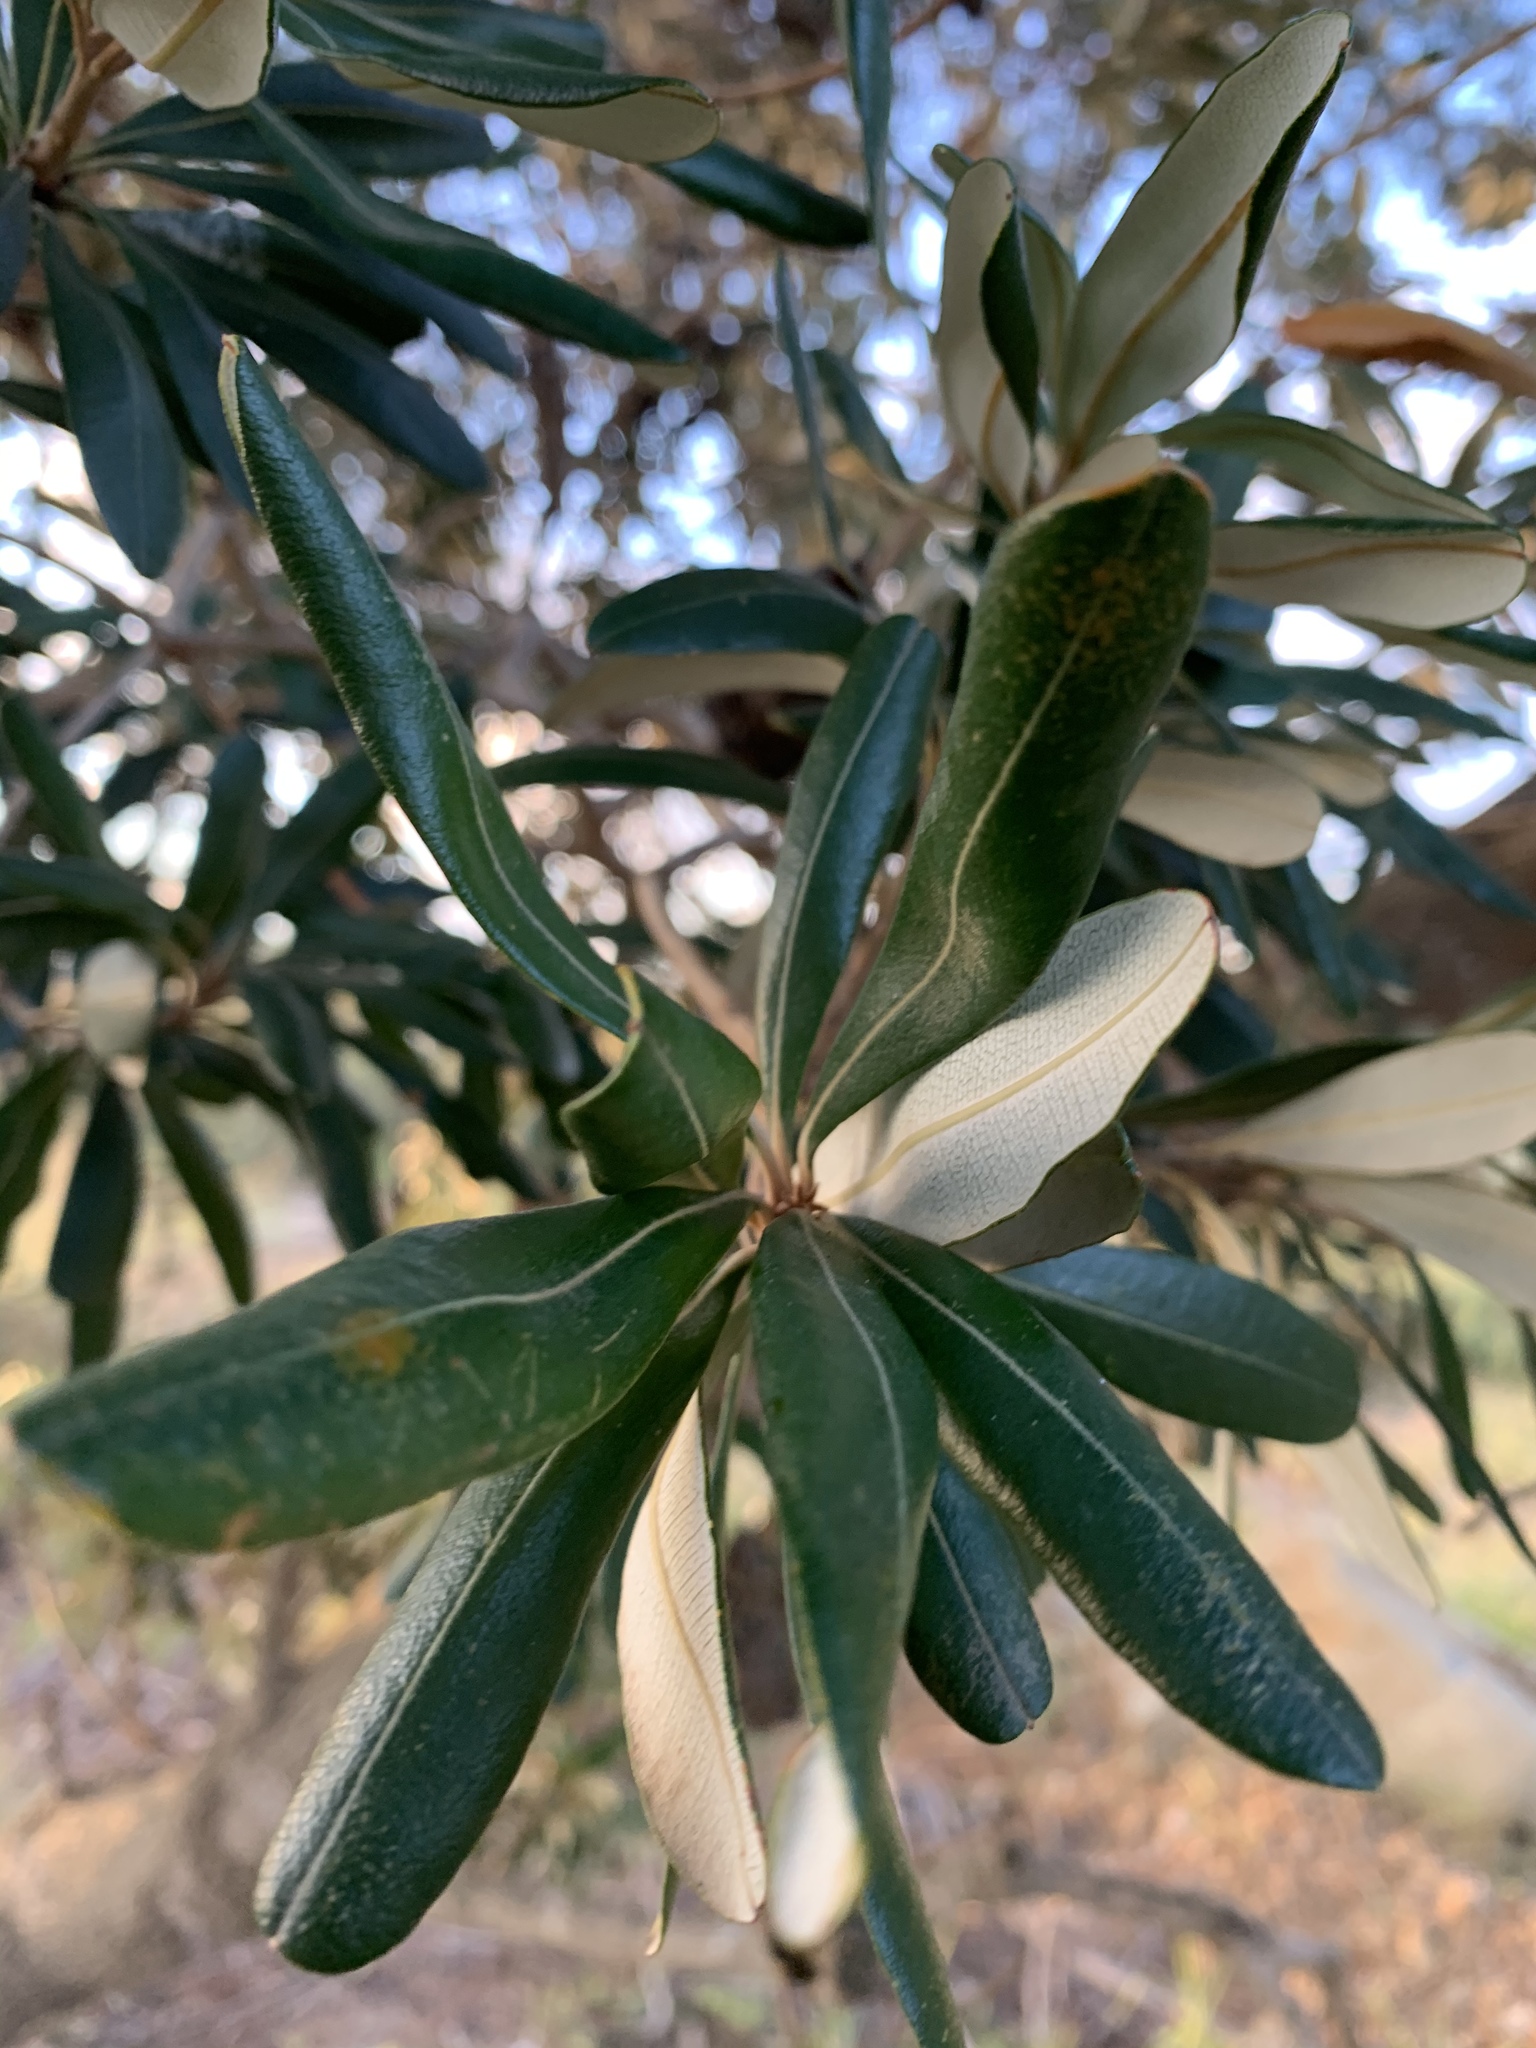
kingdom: Plantae
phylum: Tracheophyta
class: Magnoliopsida
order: Proteales
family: Proteaceae
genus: Banksia
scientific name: Banksia integrifolia
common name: White-honeysuckle
